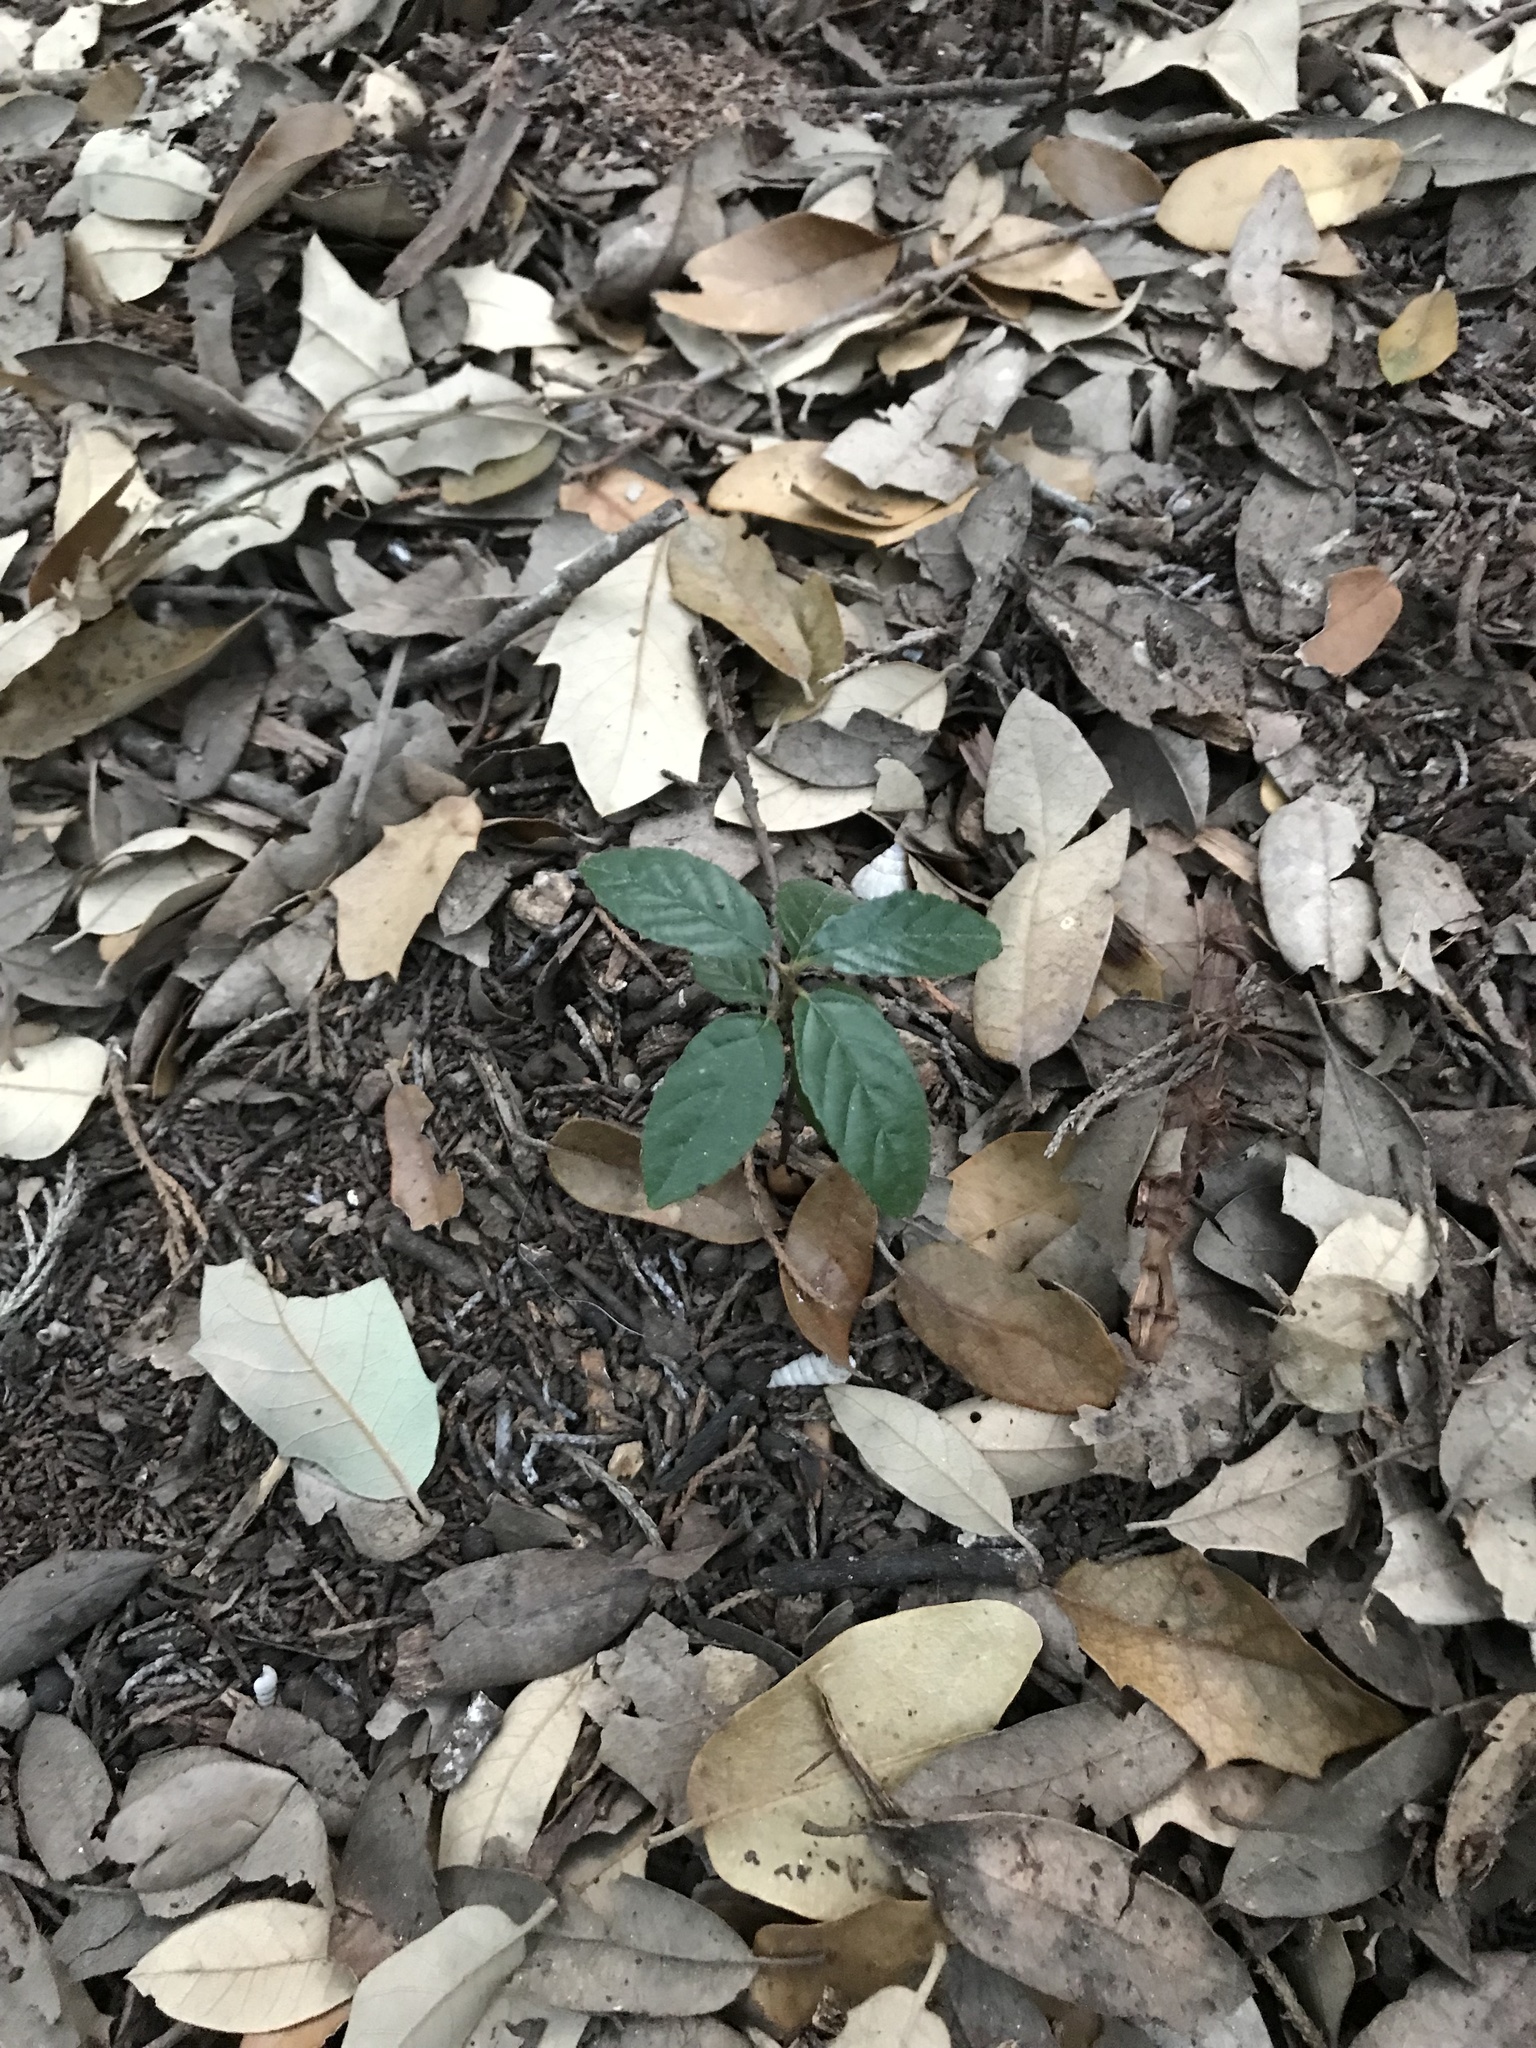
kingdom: Plantae
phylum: Tracheophyta
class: Magnoliopsida
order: Rosales
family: Rhamnaceae
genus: Frangula
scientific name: Frangula caroliniana
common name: Carolina buckthorn
